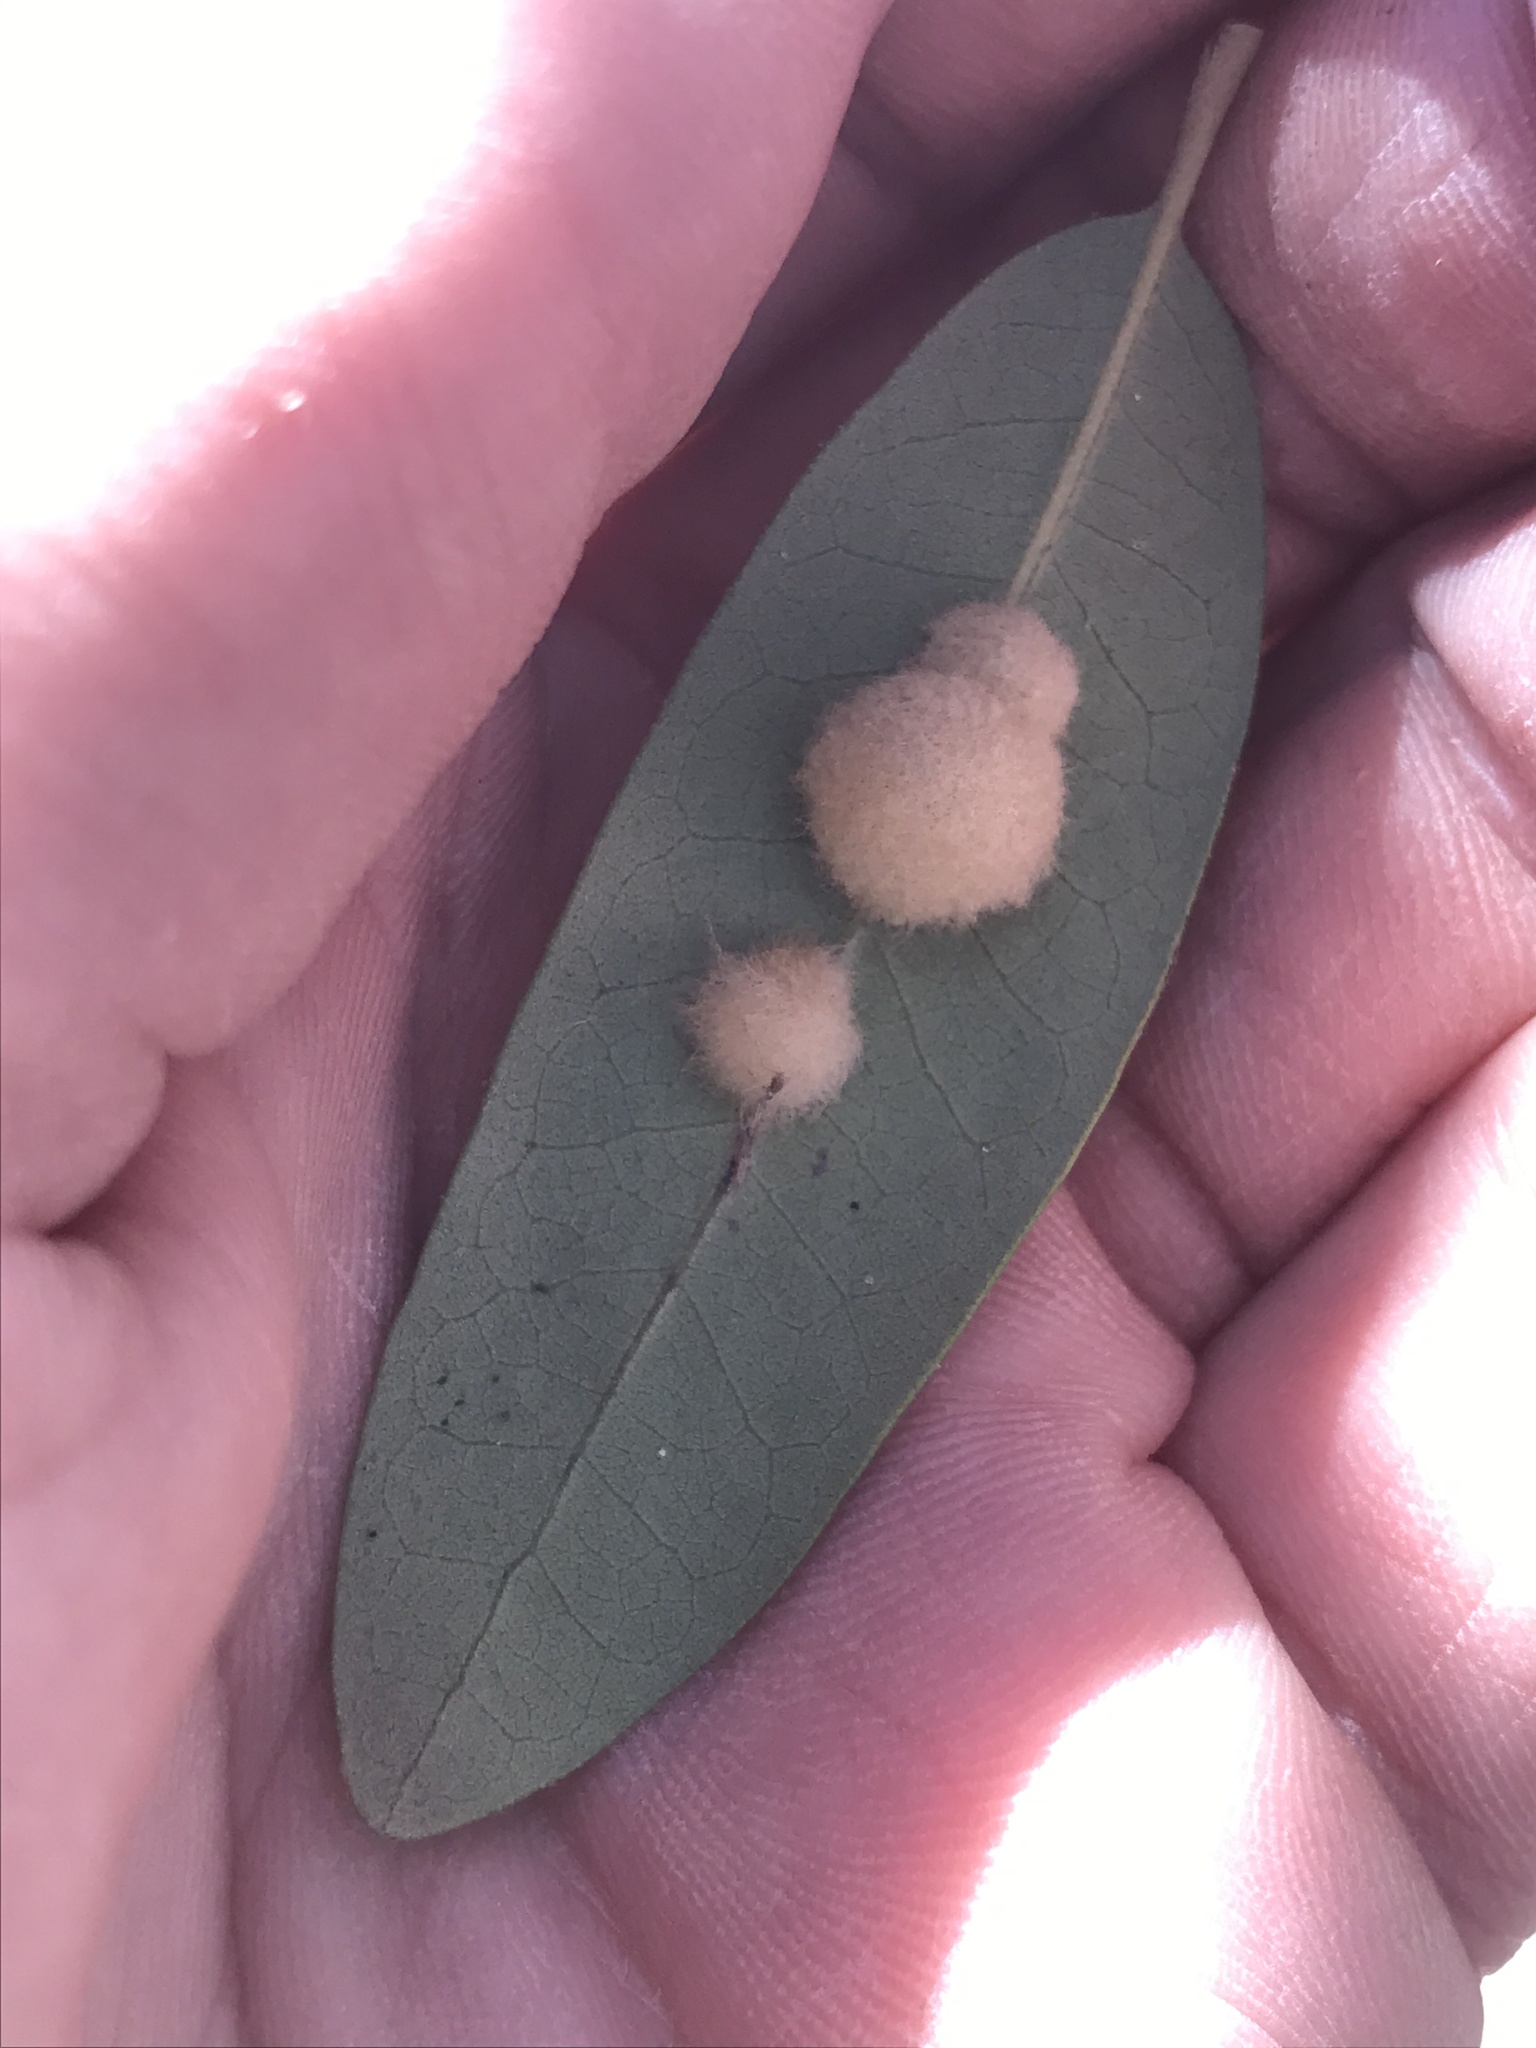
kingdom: Animalia
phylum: Arthropoda
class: Insecta
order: Hymenoptera
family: Cynipidae
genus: Andricus
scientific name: Andricus Druon quercuslanigerum
